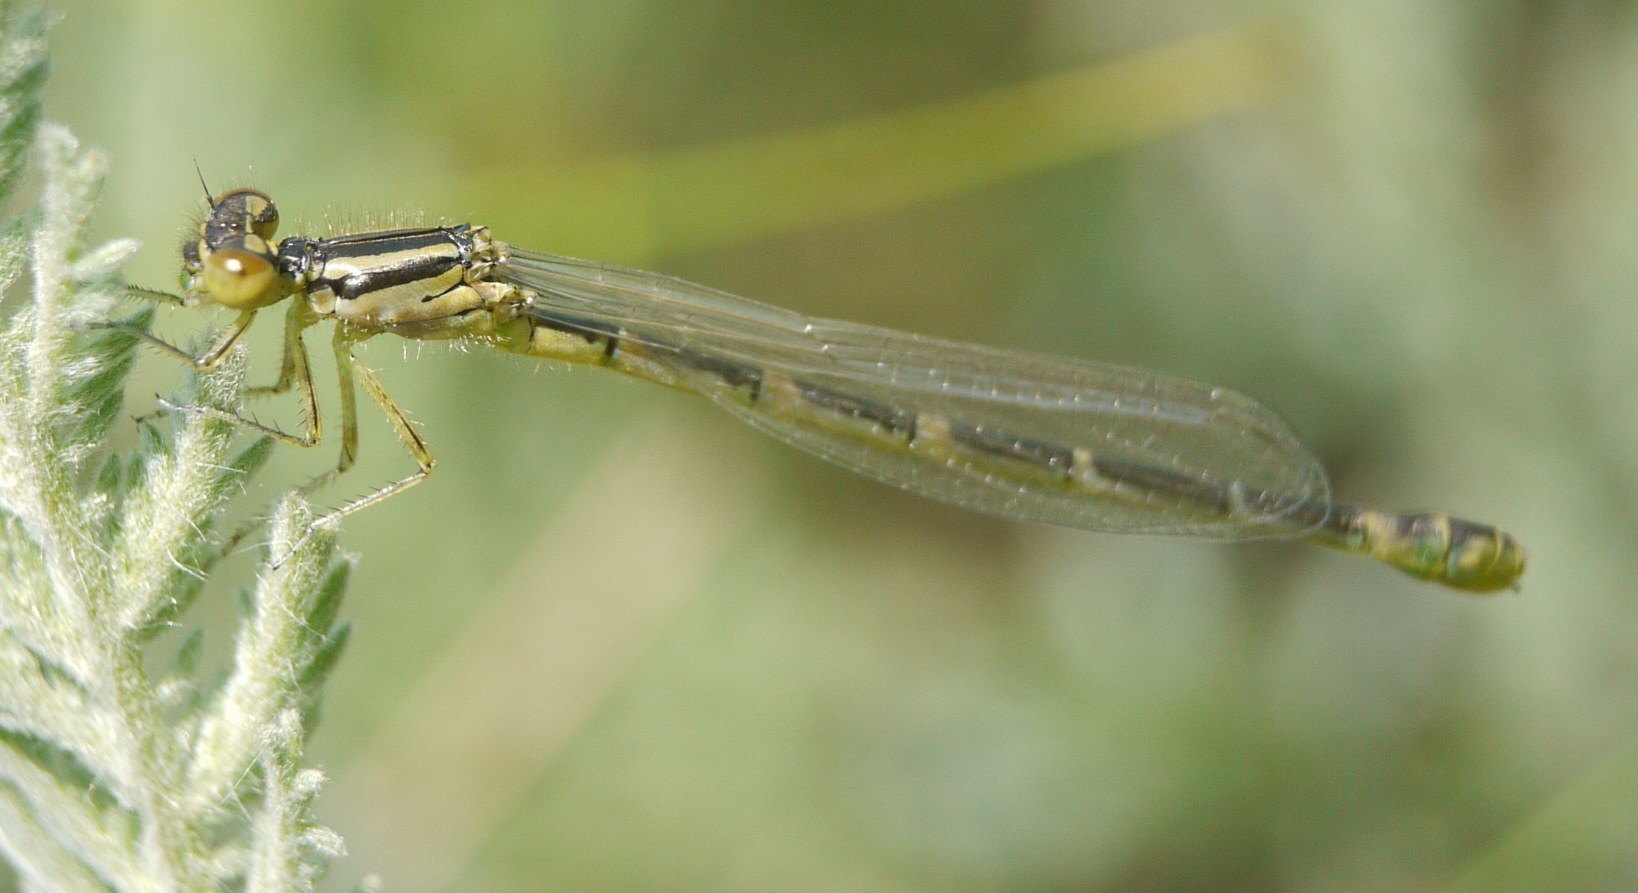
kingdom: Animalia
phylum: Arthropoda
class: Insecta
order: Odonata
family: Coenagrionidae
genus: Coenagrion
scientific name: Coenagrion scitulum
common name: Dainty bluet
